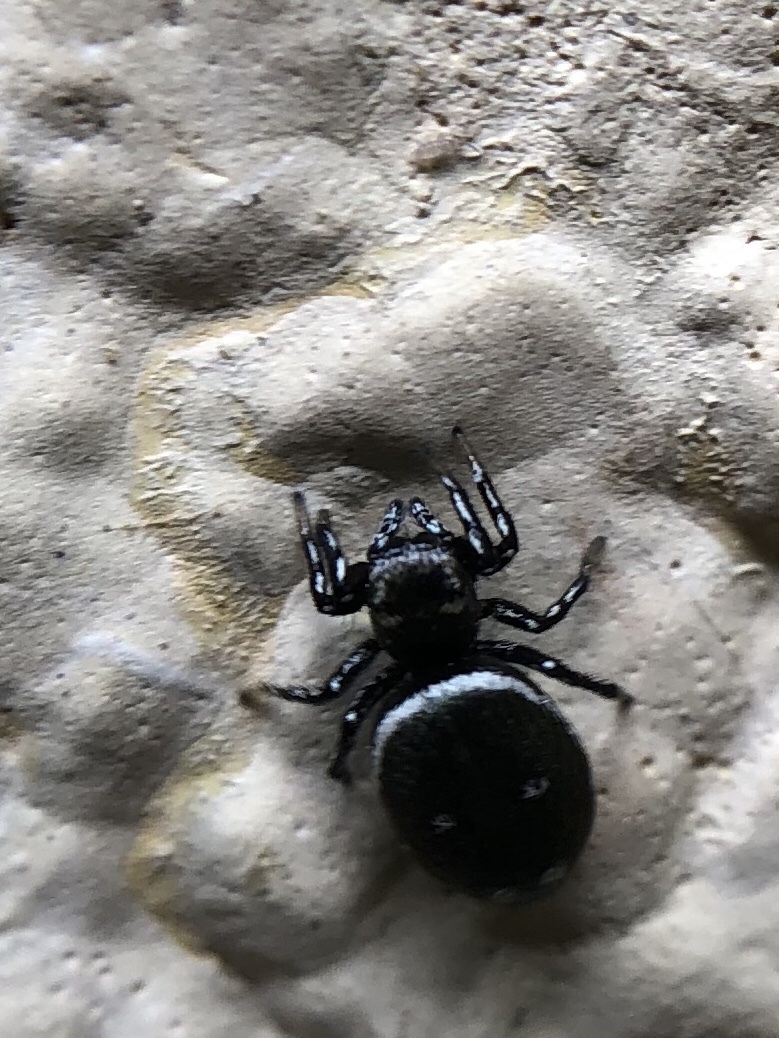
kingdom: Animalia
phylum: Arthropoda
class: Arachnida
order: Araneae
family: Salticidae
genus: Heliophanus
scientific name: Heliophanus kochii
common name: Sun jumping spider
